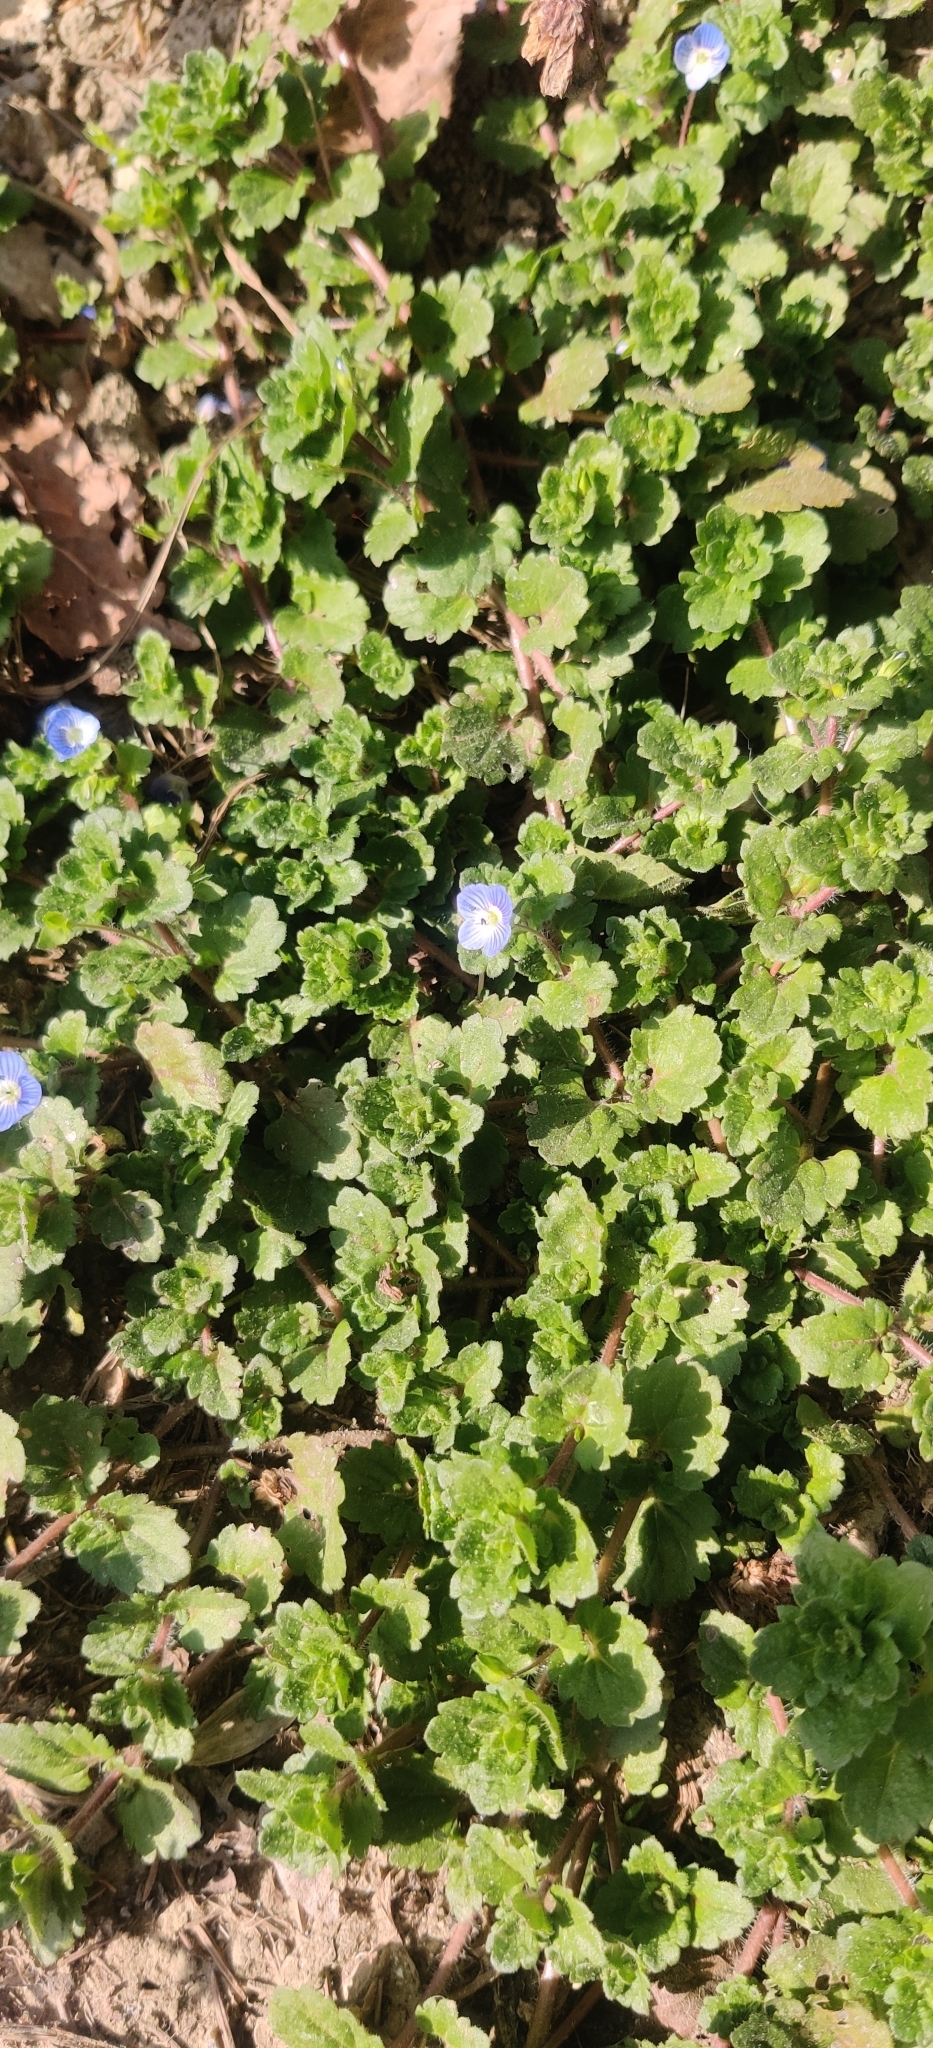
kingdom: Plantae
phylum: Tracheophyta
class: Magnoliopsida
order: Lamiales
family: Plantaginaceae
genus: Veronica
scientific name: Veronica persica
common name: Common field-speedwell
